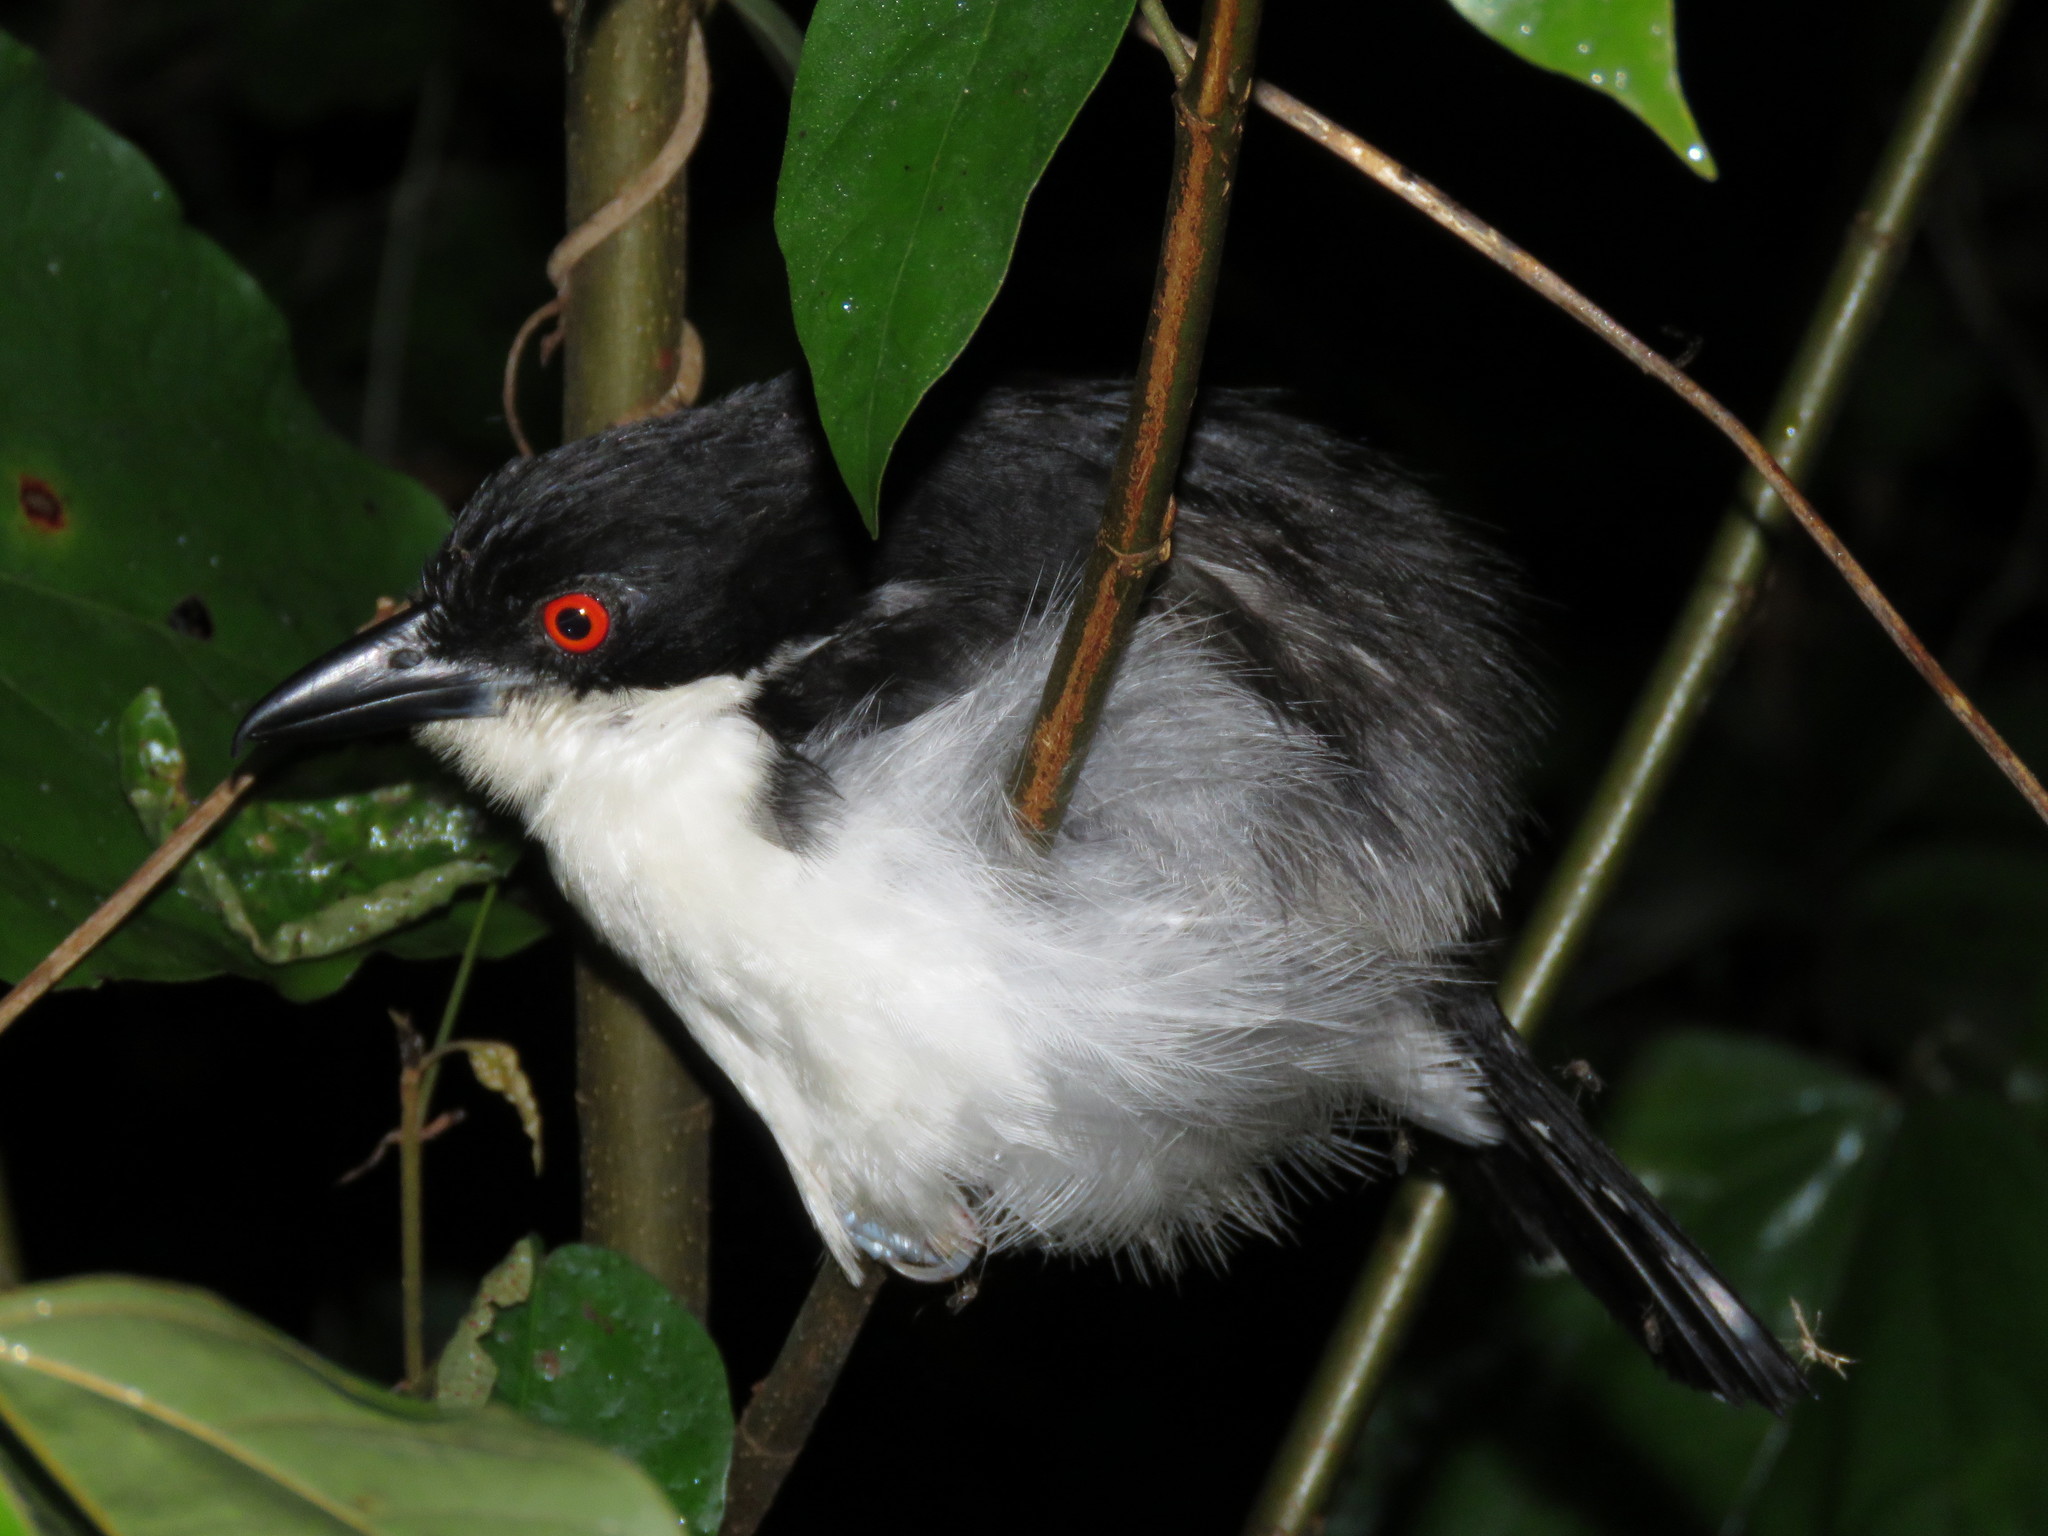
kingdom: Animalia
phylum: Chordata
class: Aves
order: Passeriformes
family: Thamnophilidae
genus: Taraba
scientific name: Taraba major
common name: Great antshrike
